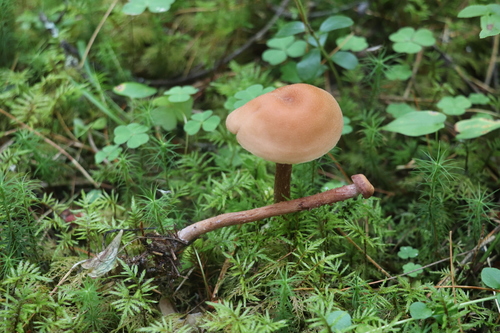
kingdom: Fungi
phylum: Basidiomycota
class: Agaricomycetes
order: Agaricales
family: Hydnangiaceae
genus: Laccaria
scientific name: Laccaria proxima
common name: Scurfy deceiver
